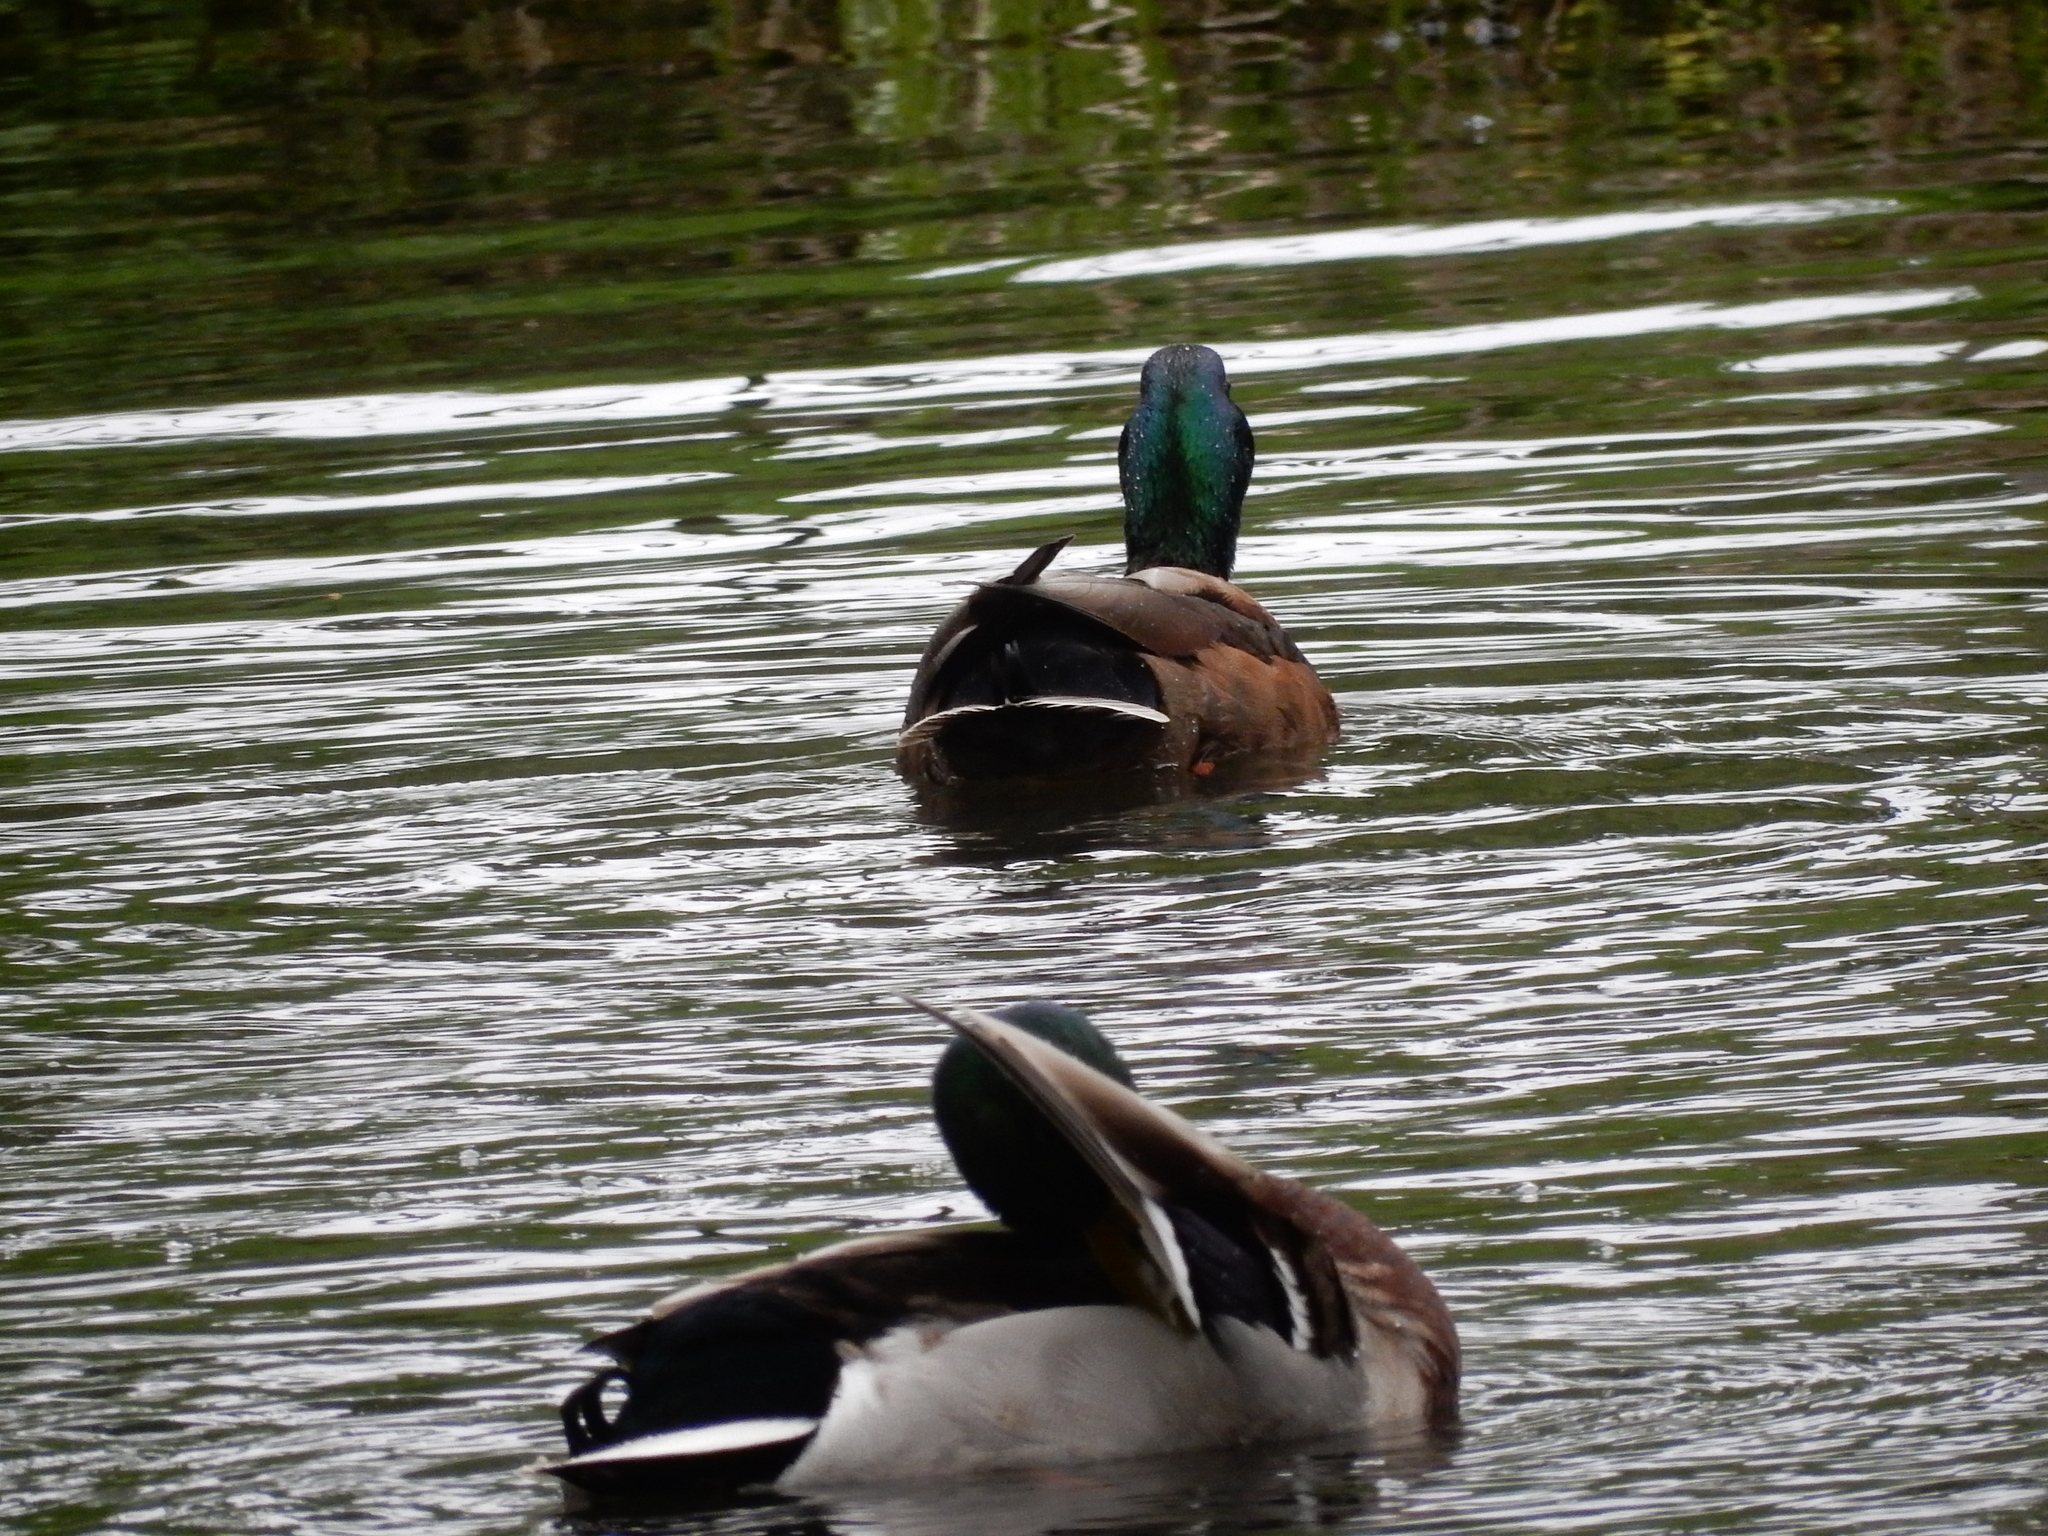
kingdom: Animalia
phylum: Chordata
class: Aves
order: Anseriformes
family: Anatidae
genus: Anas
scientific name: Anas platyrhynchos
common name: Mallard
